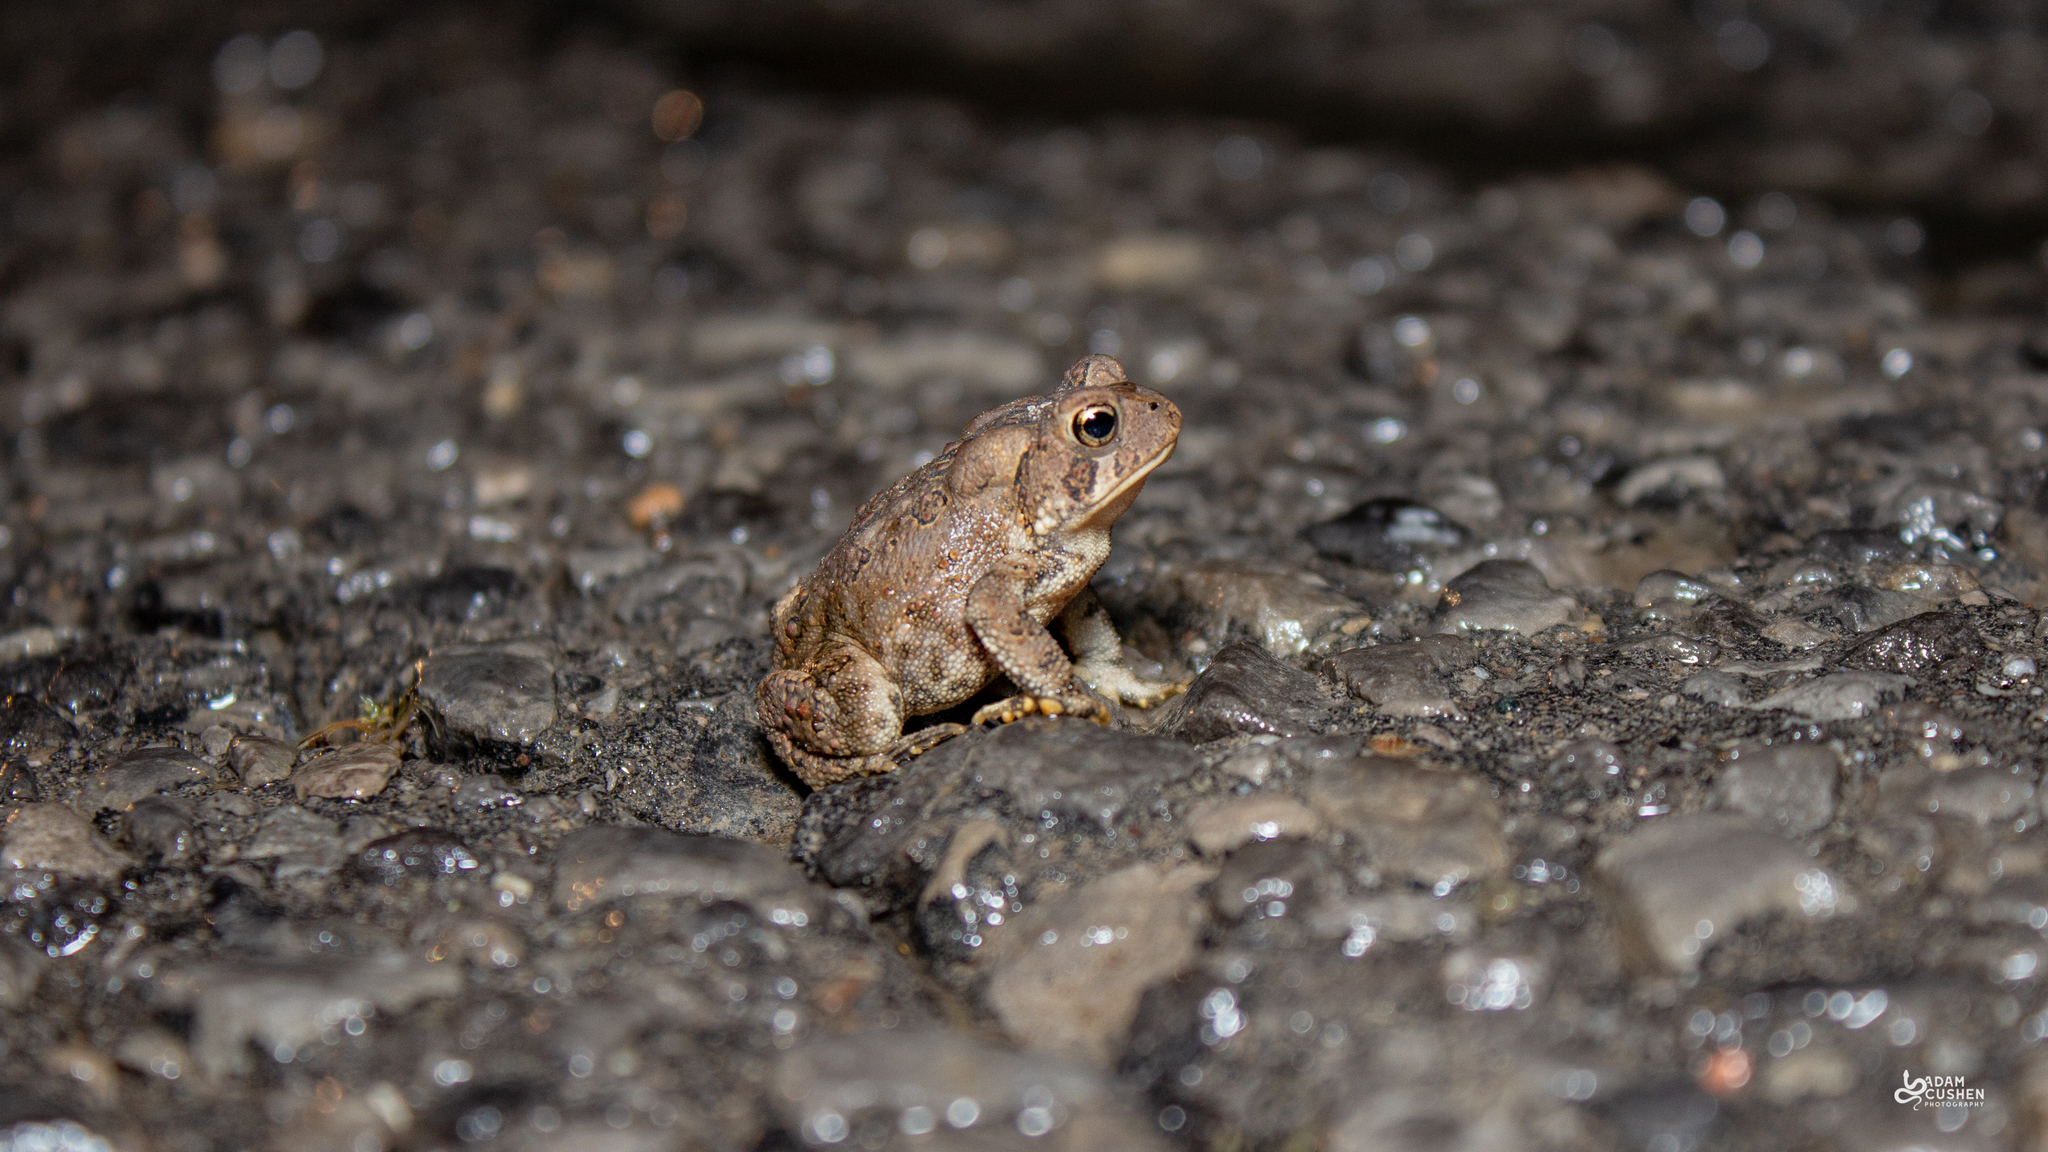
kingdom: Animalia
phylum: Chordata
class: Amphibia
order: Anura
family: Bufonidae
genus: Anaxyrus
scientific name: Anaxyrus americanus
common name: American toad
